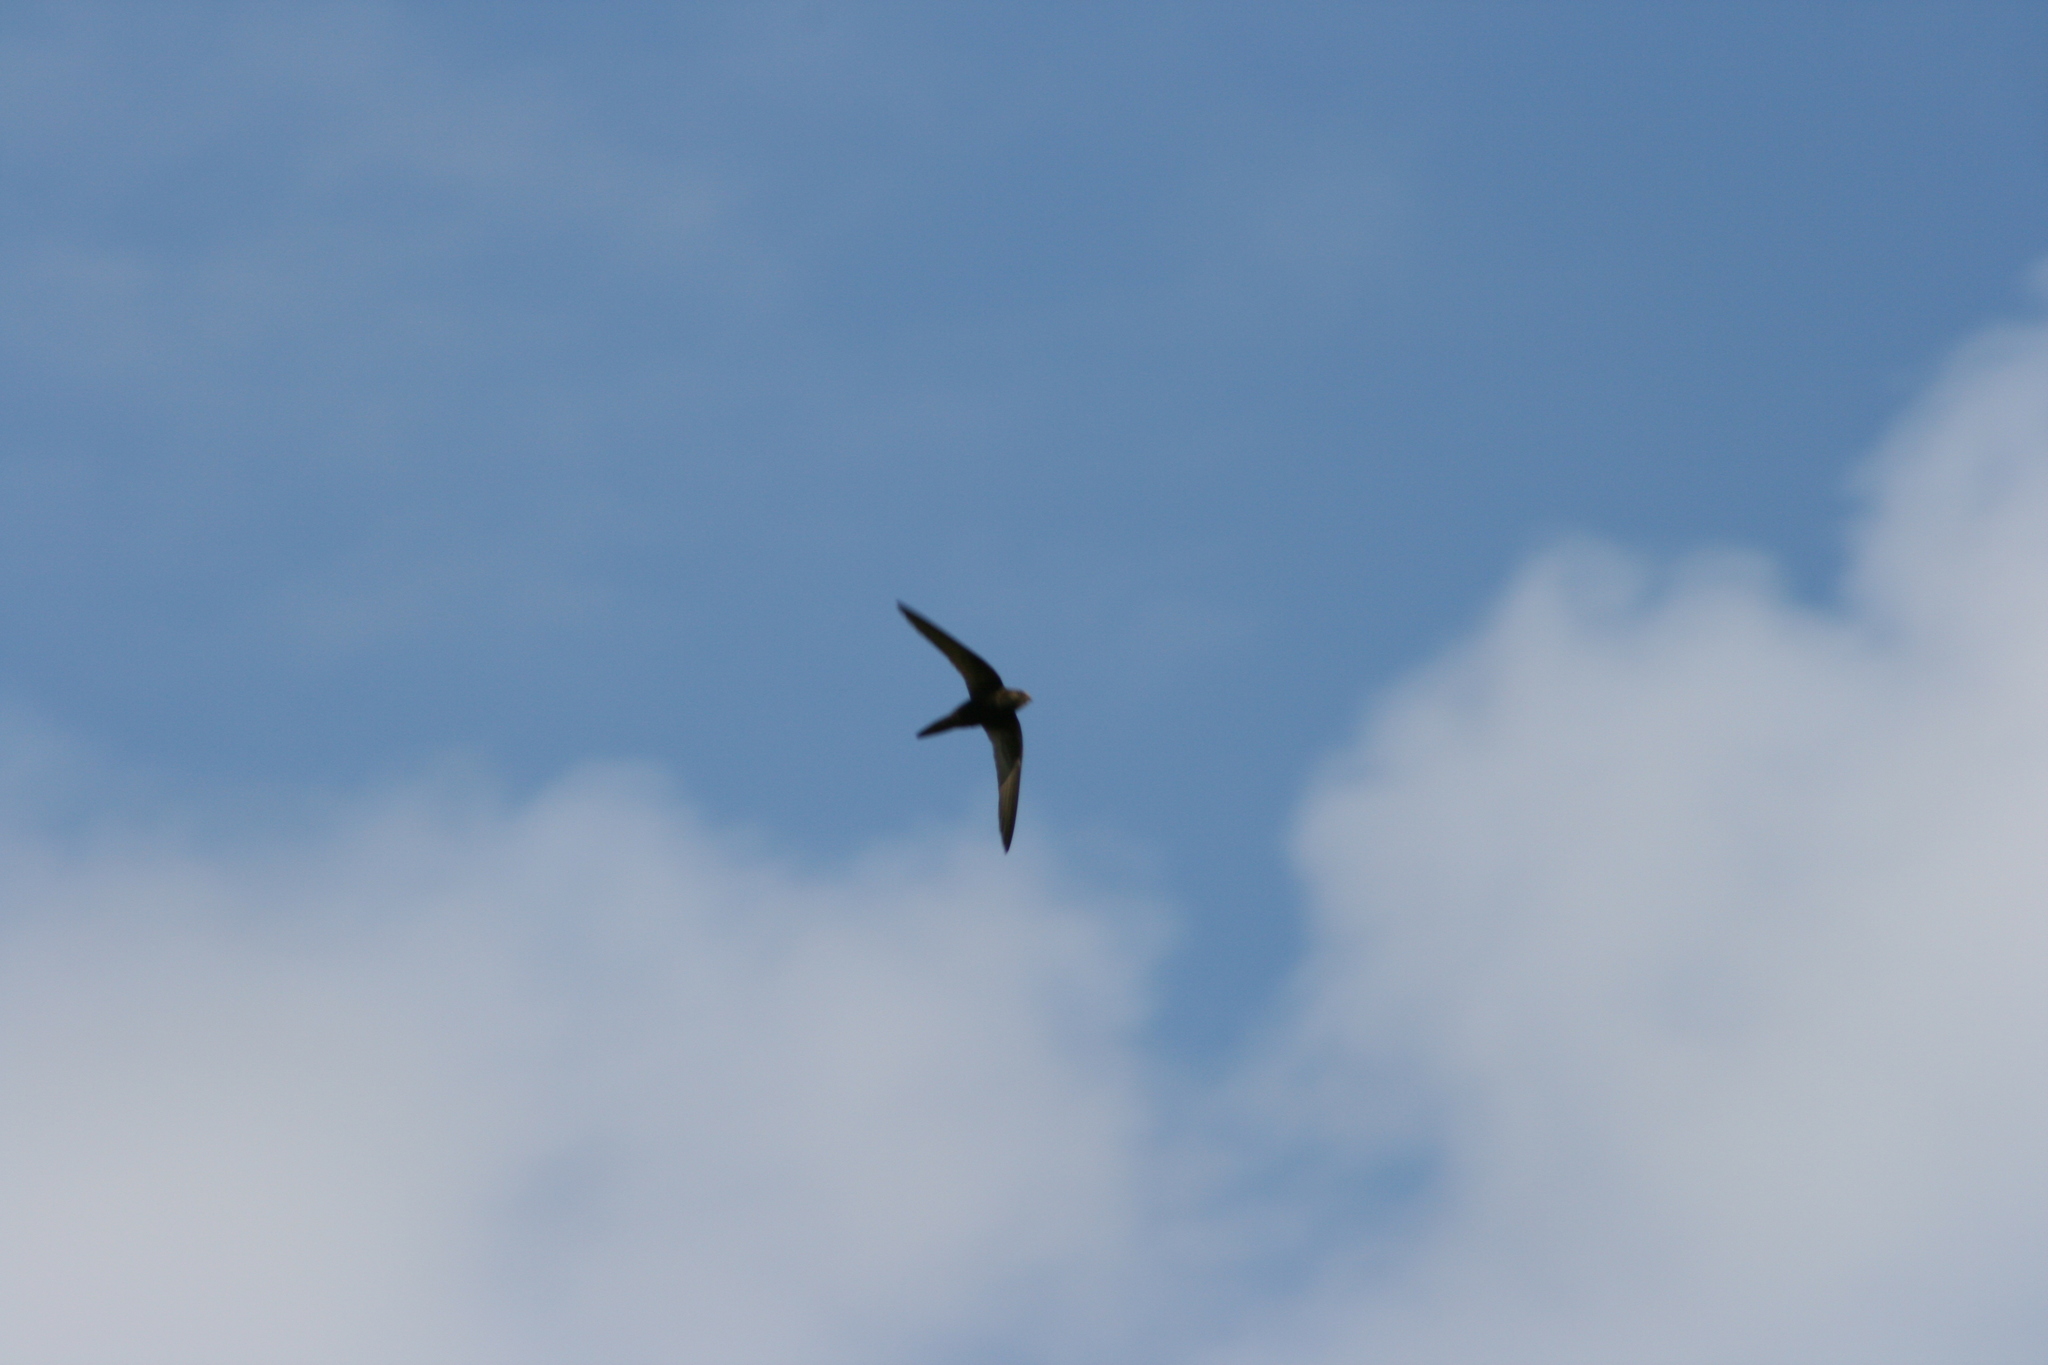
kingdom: Animalia
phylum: Chordata
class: Aves
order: Apodiformes
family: Apodidae
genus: Apus
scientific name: Apus apus
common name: Common swift
